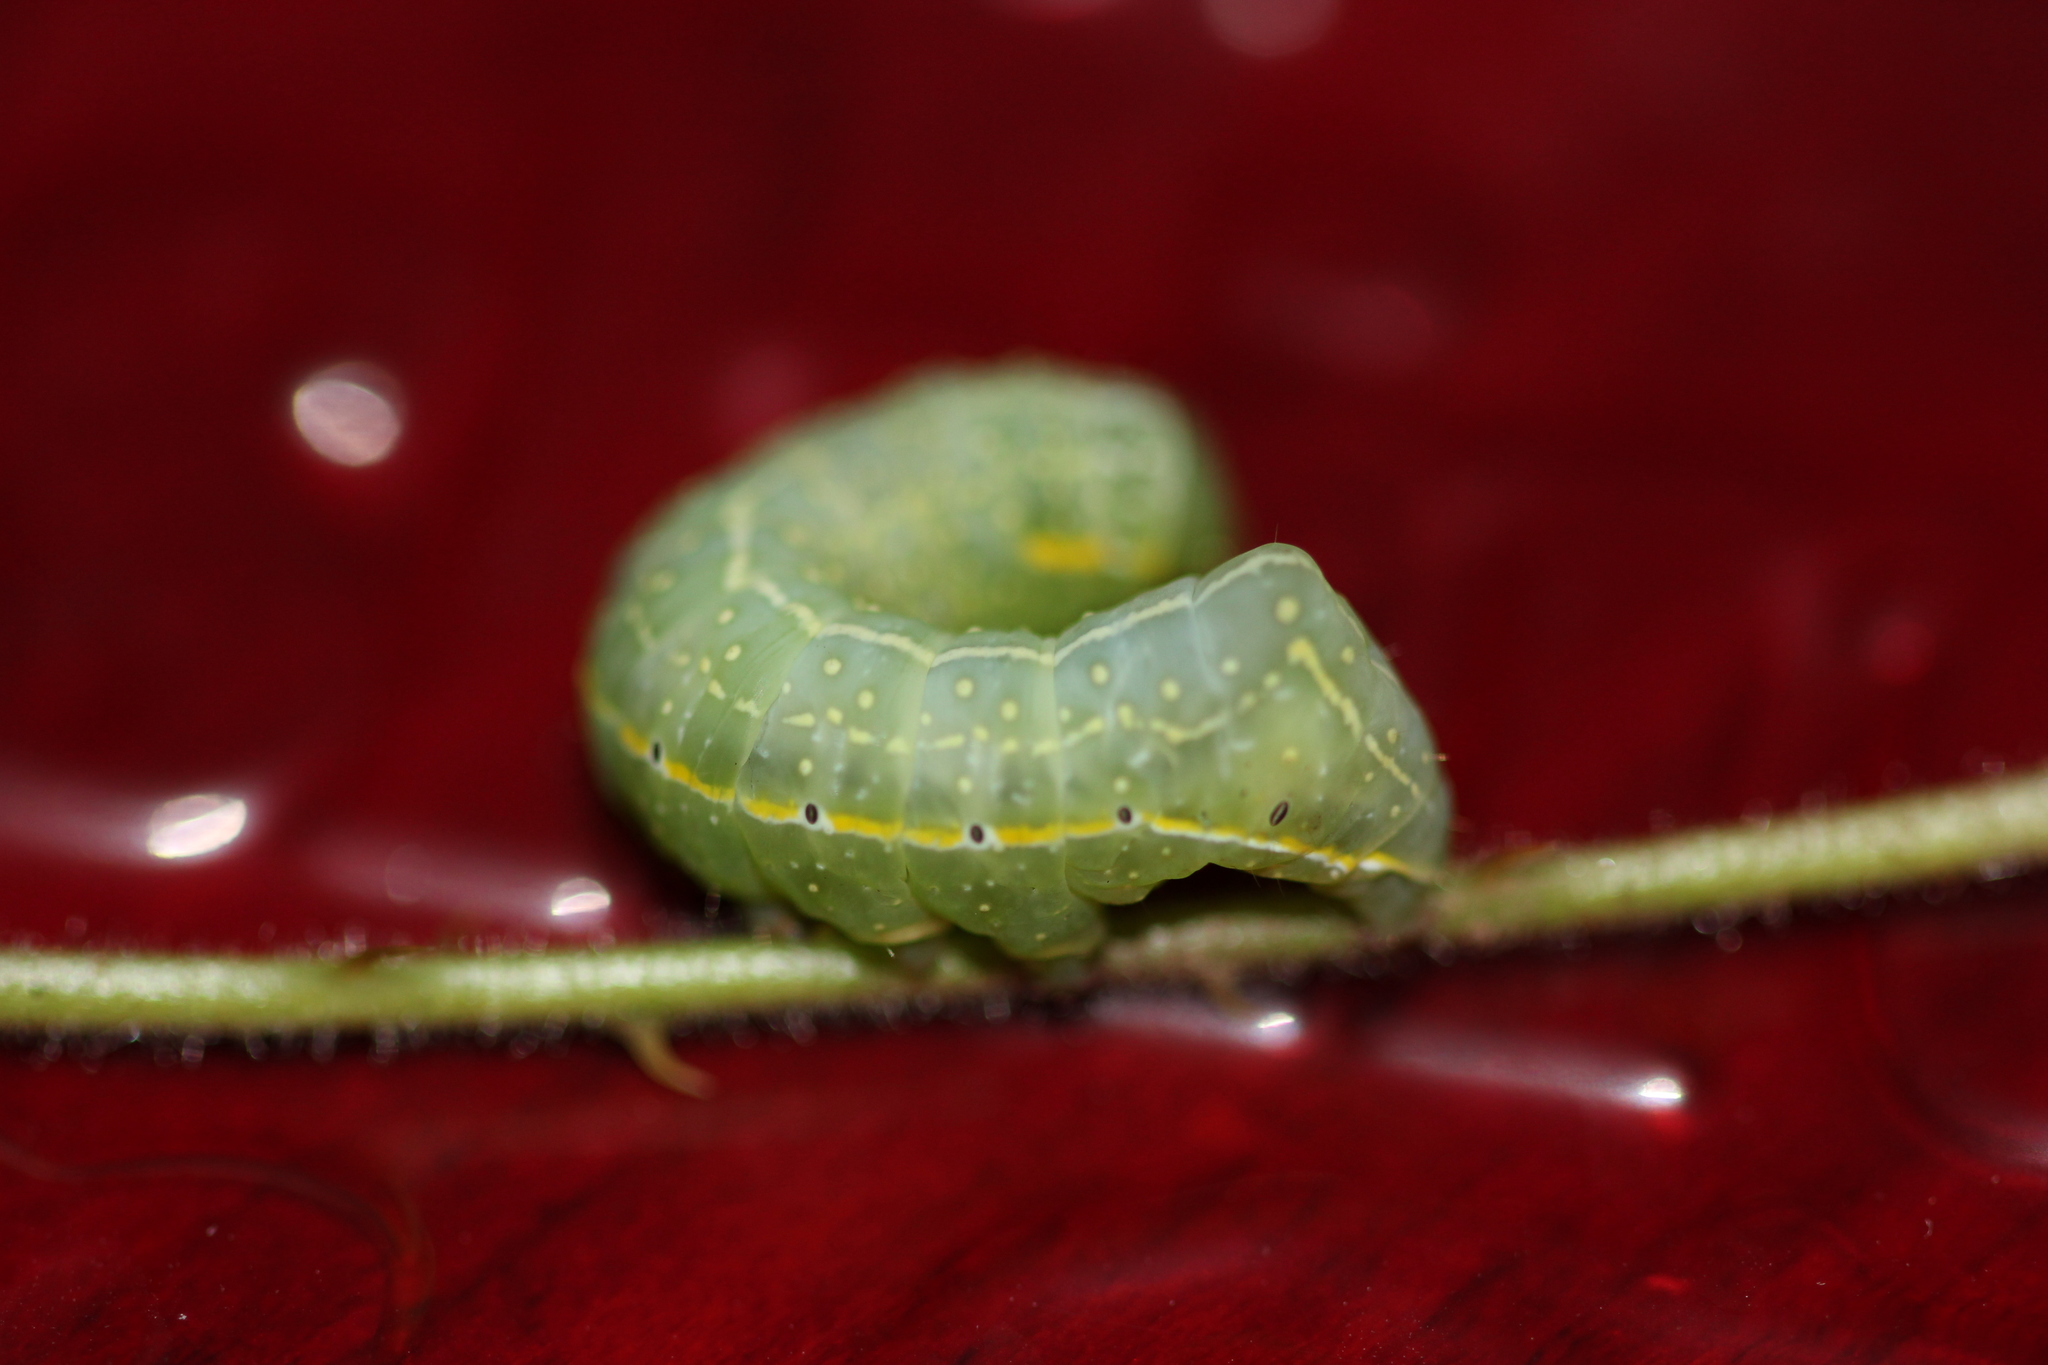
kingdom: Animalia
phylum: Arthropoda
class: Insecta
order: Lepidoptera
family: Noctuidae
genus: Amphipyra
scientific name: Amphipyra pyramidoides
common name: American copper underwing
